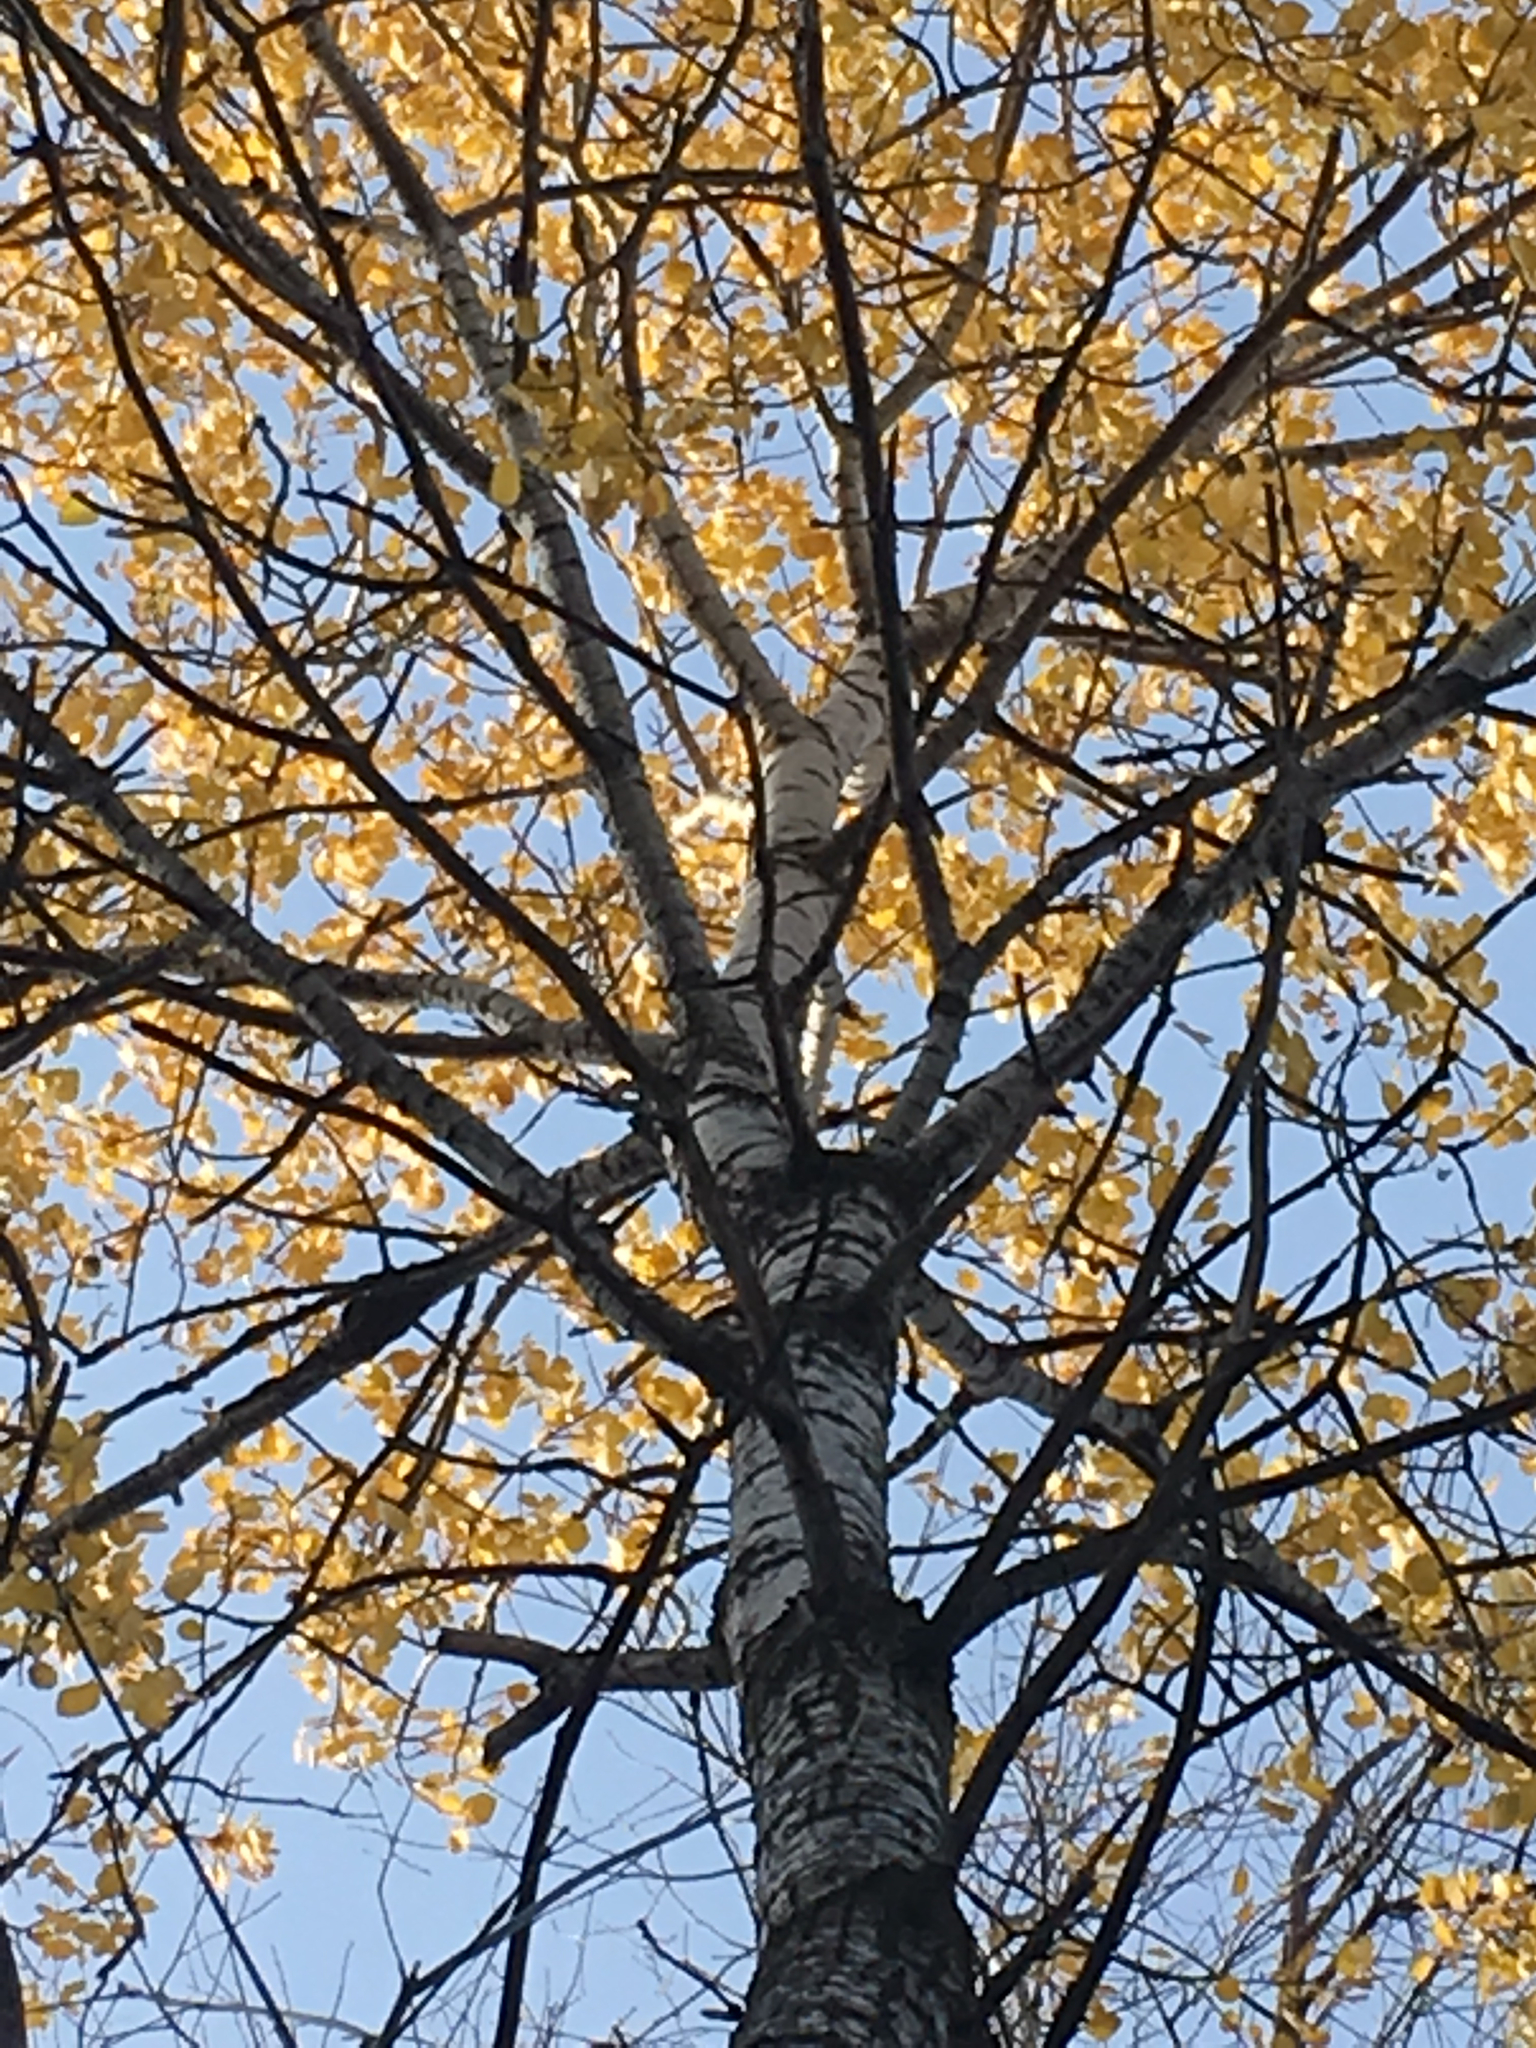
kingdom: Plantae
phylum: Tracheophyta
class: Magnoliopsida
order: Malpighiales
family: Salicaceae
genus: Populus
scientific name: Populus tremuloides
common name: Quaking aspen
